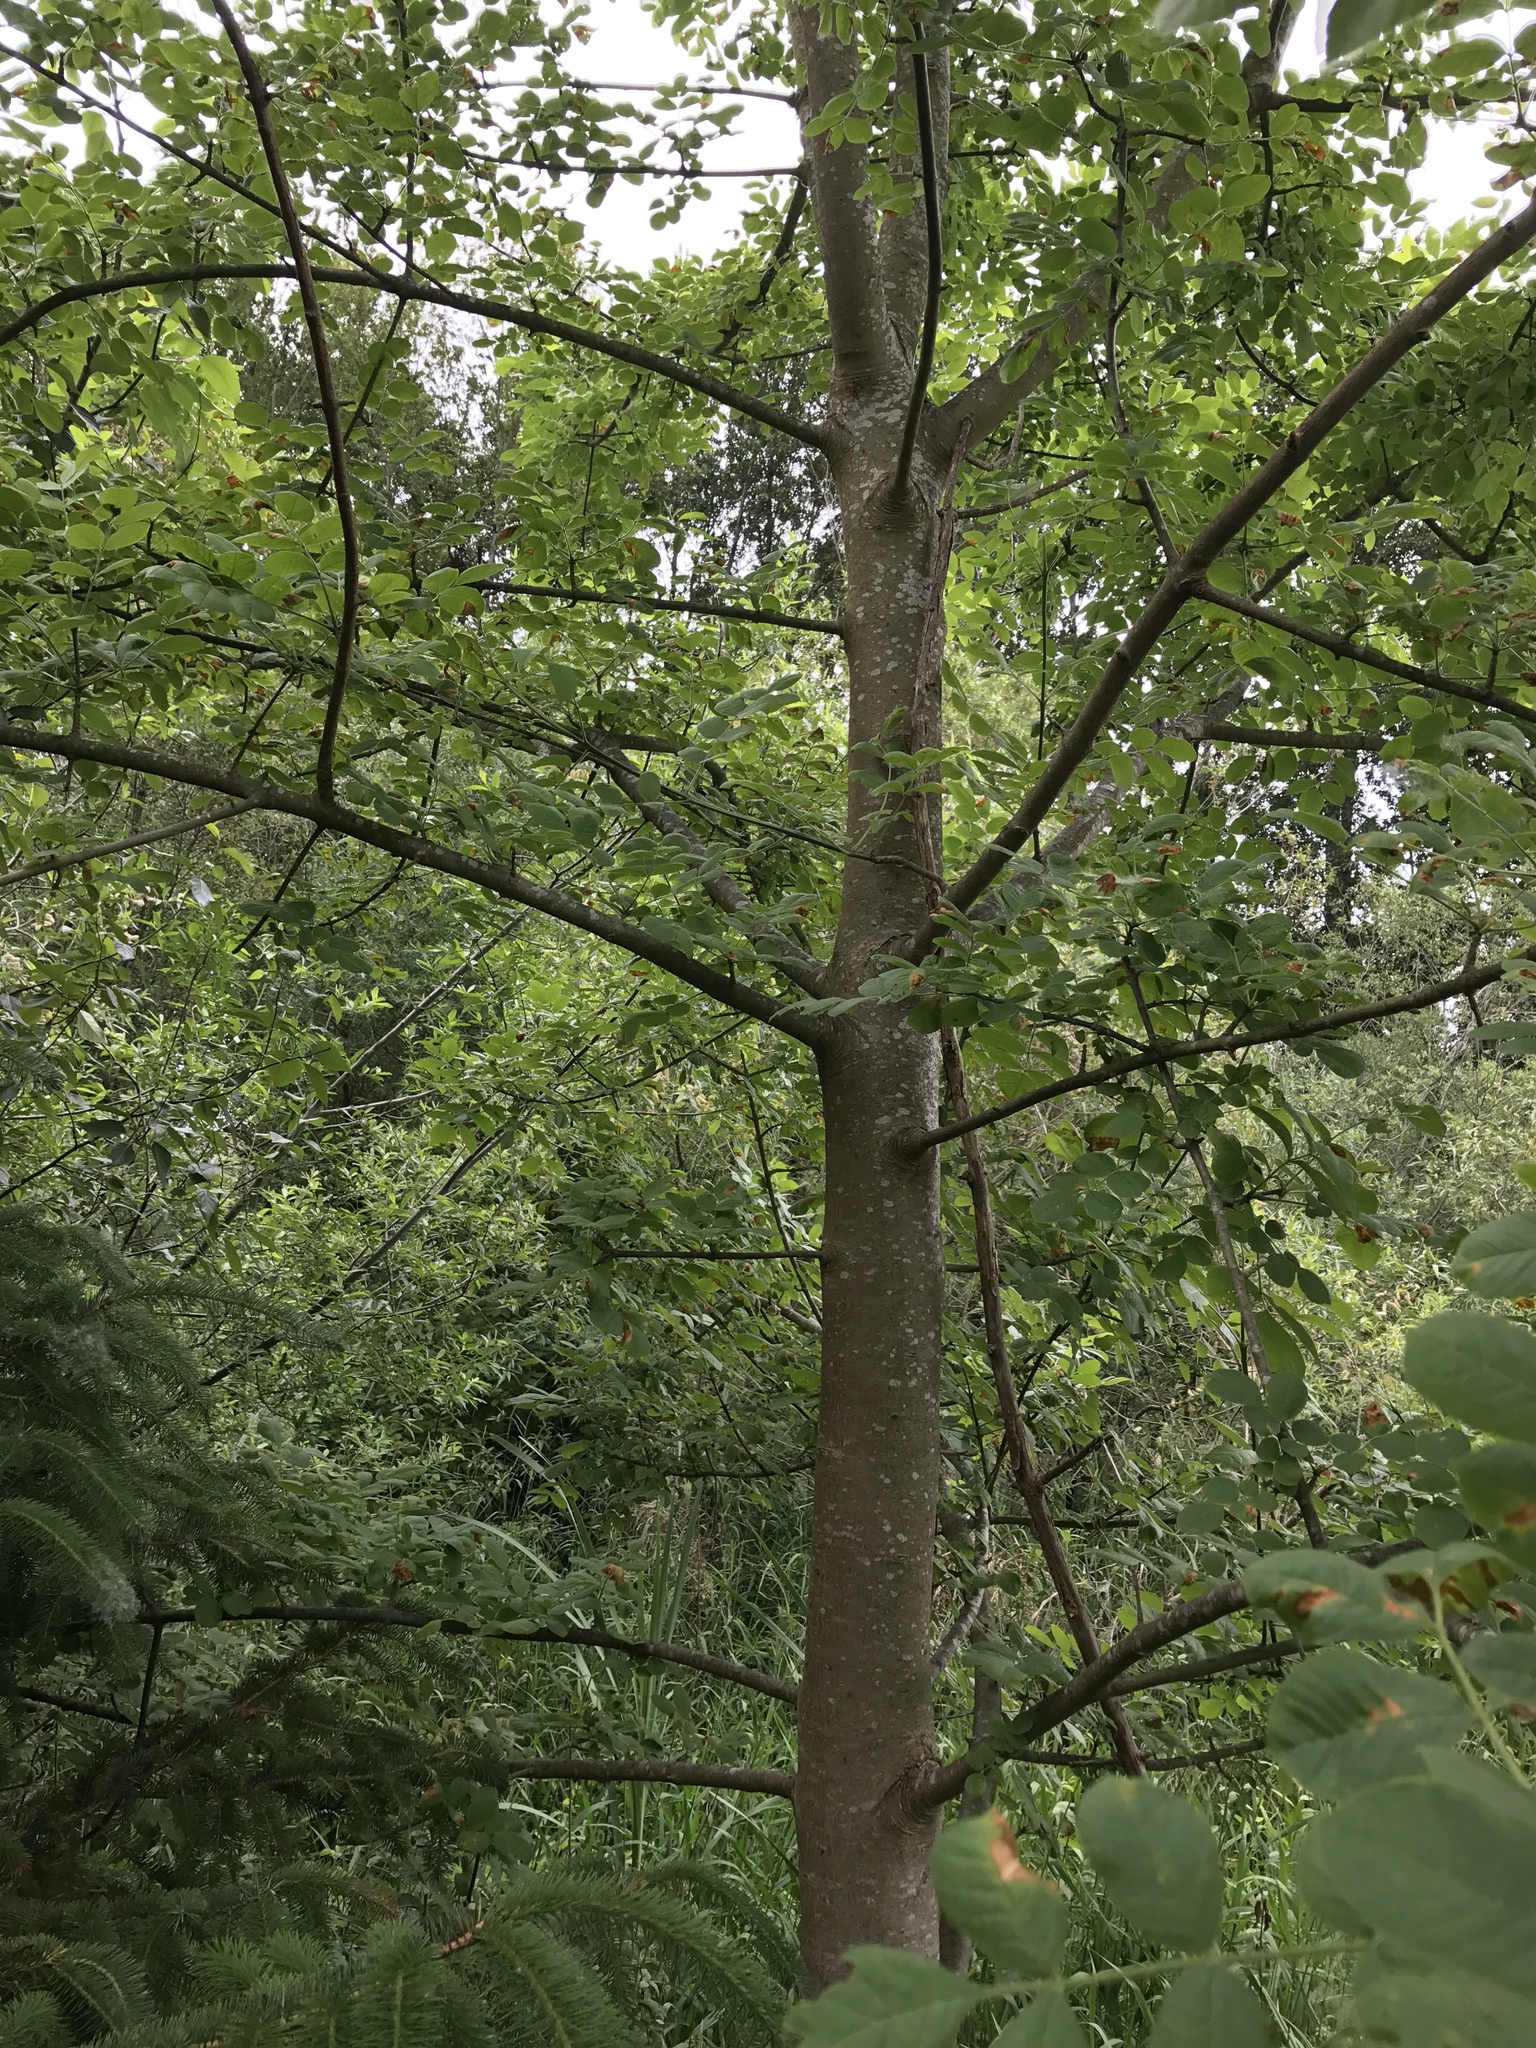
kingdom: Plantae
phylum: Tracheophyta
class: Magnoliopsida
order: Lamiales
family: Oleaceae
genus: Fraxinus
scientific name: Fraxinus latifolia
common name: Oregon ash
